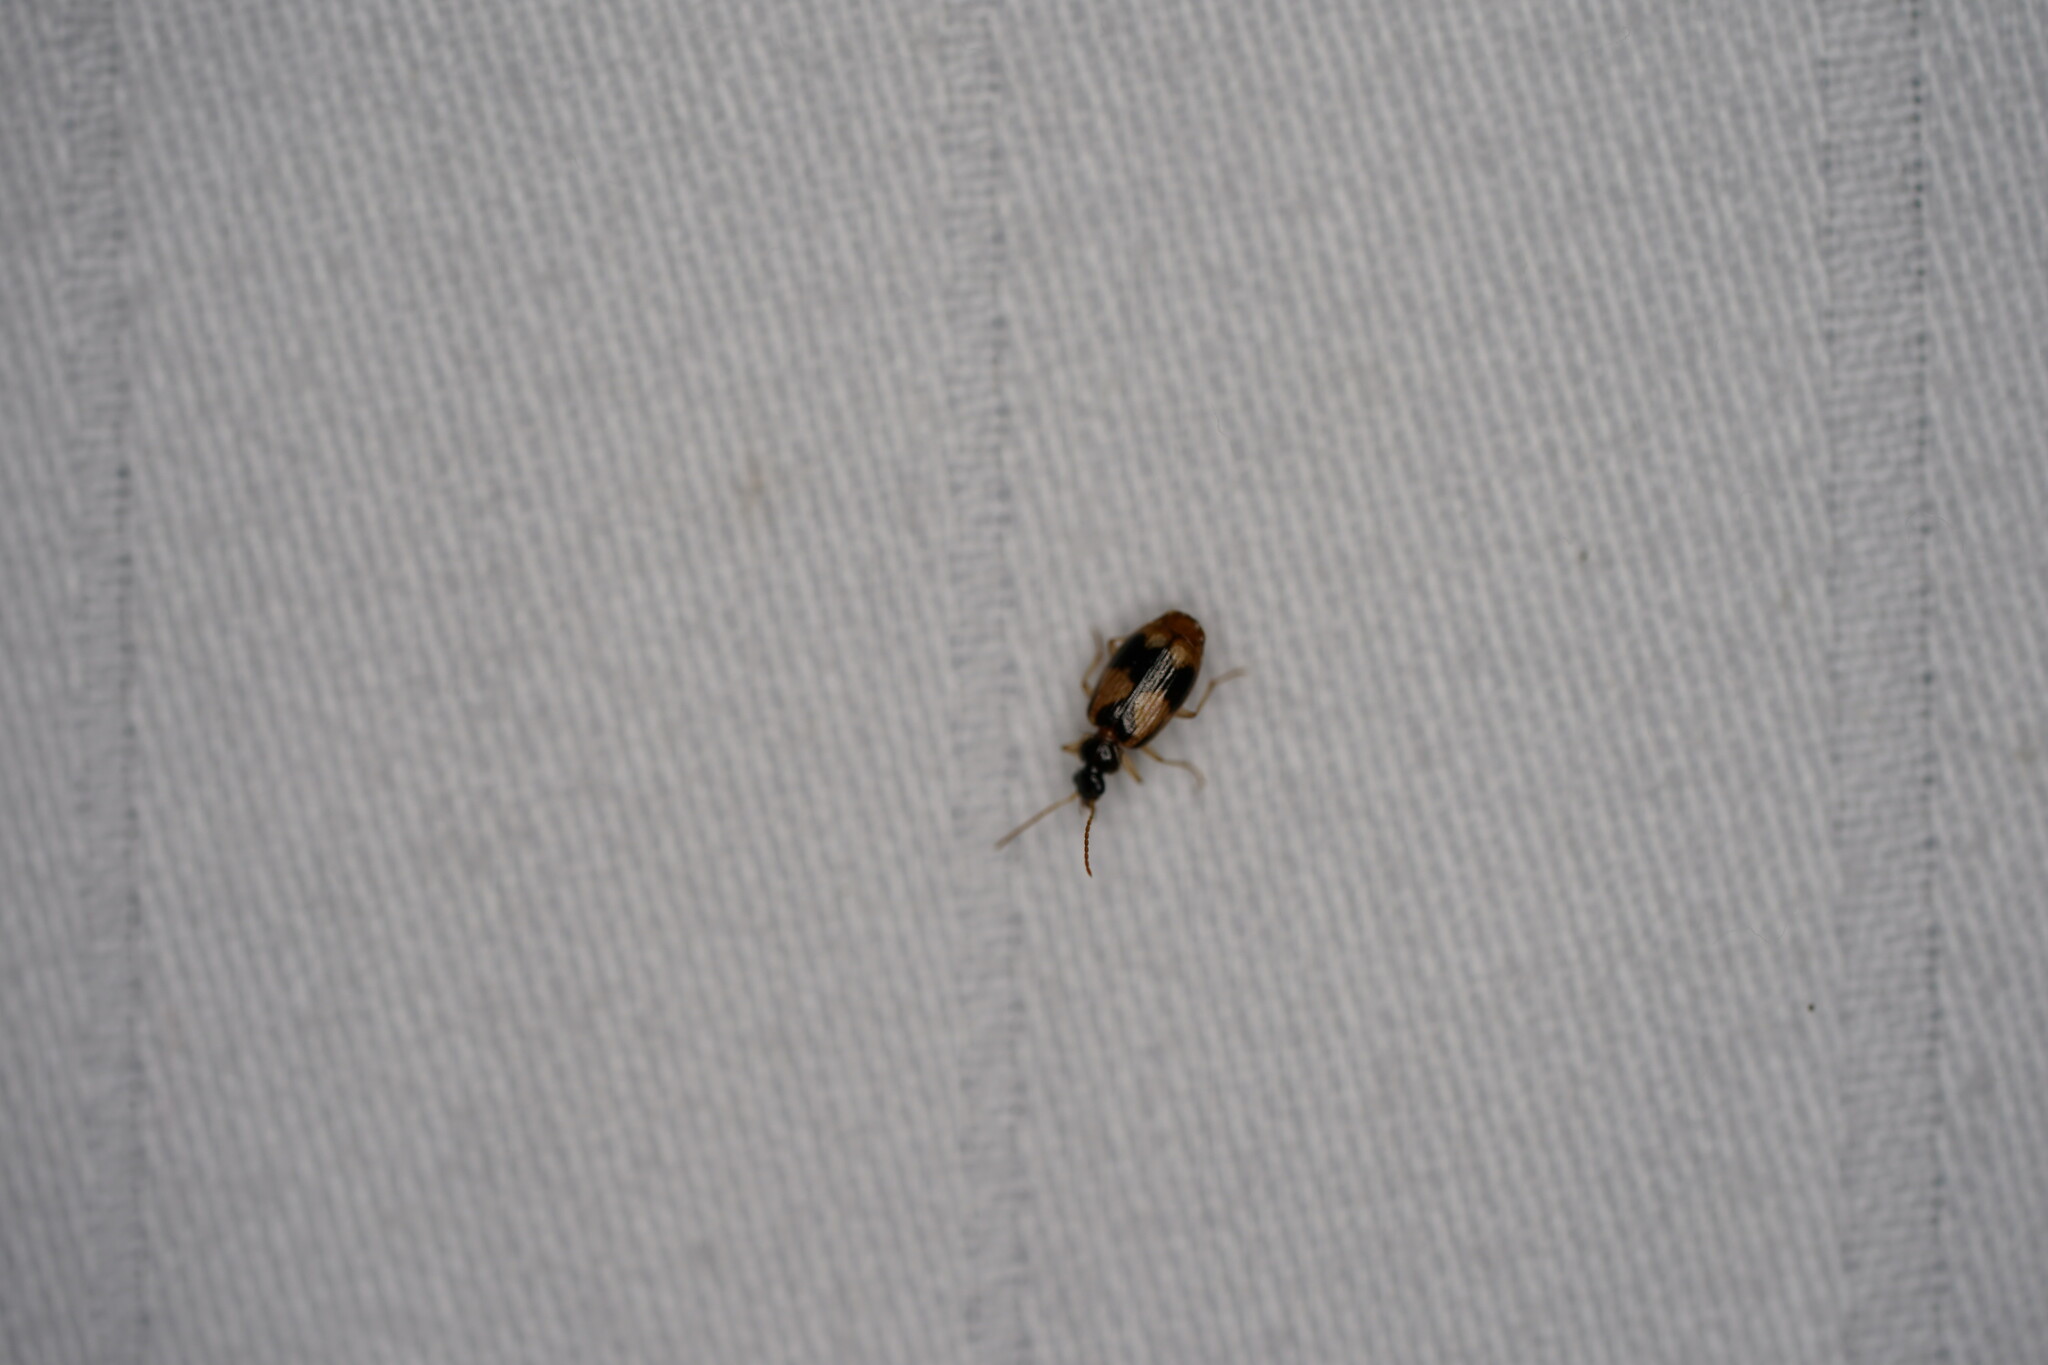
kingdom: Animalia
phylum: Arthropoda
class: Insecta
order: Coleoptera
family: Carabidae
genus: Lebia
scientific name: Lebia ornata
